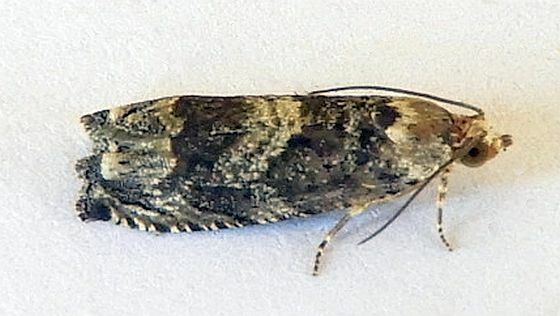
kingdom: Animalia
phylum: Arthropoda
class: Insecta
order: Lepidoptera
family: Tortricidae
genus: Cydia
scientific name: Cydia membrosa
